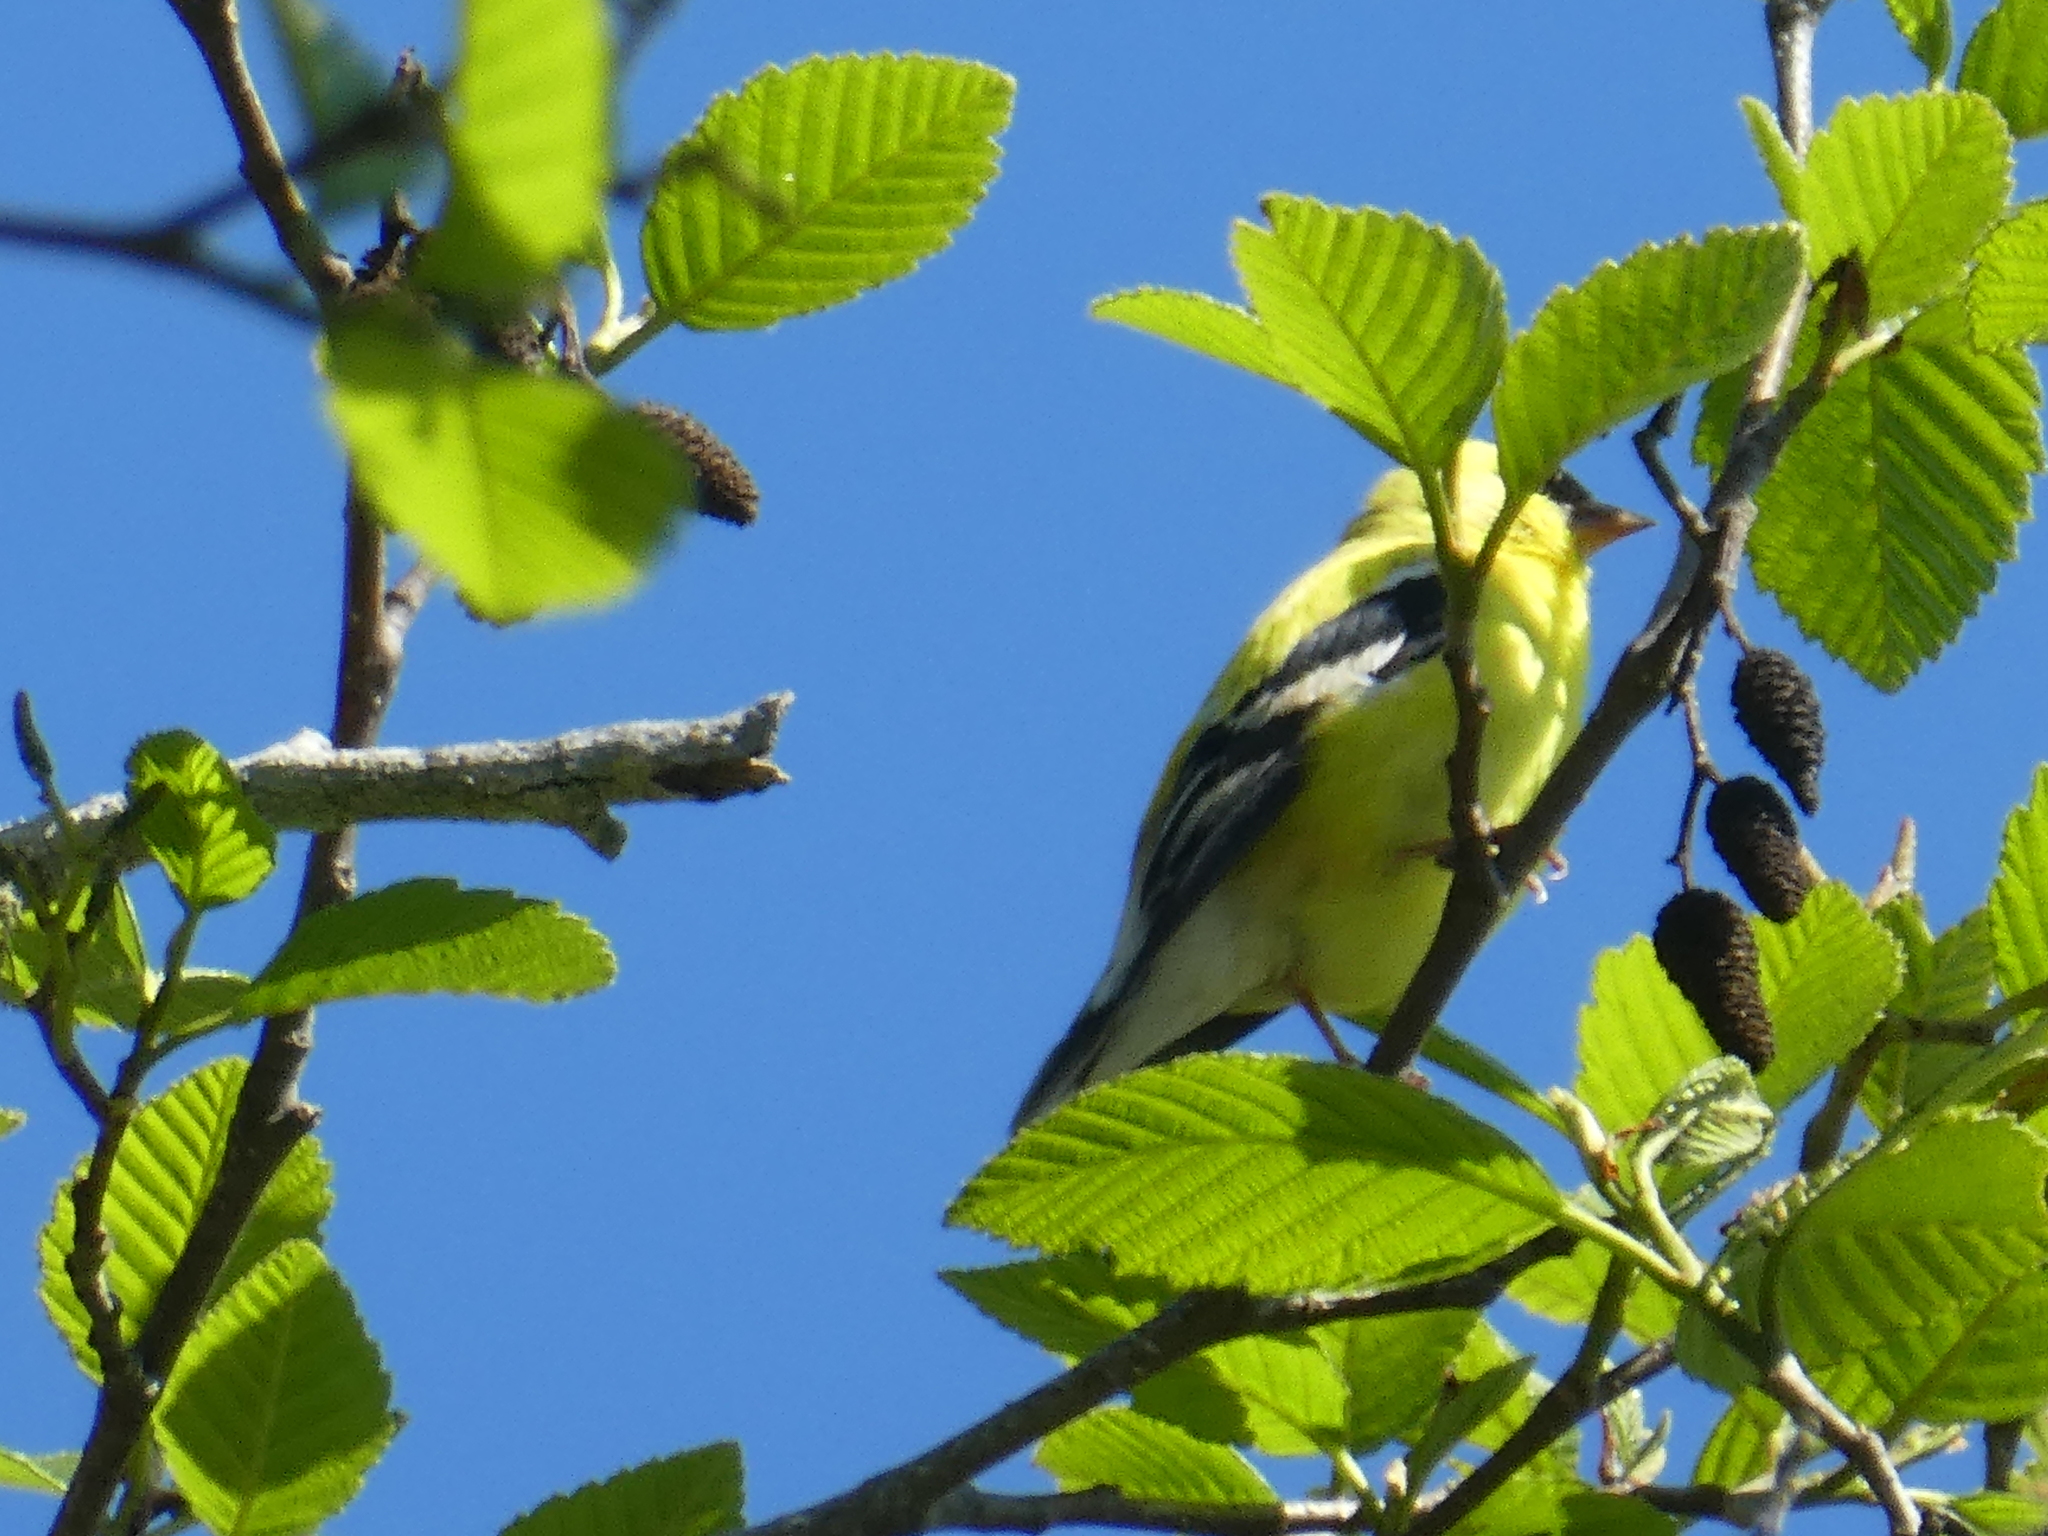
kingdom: Animalia
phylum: Chordata
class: Aves
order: Passeriformes
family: Fringillidae
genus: Spinus
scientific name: Spinus tristis
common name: American goldfinch
